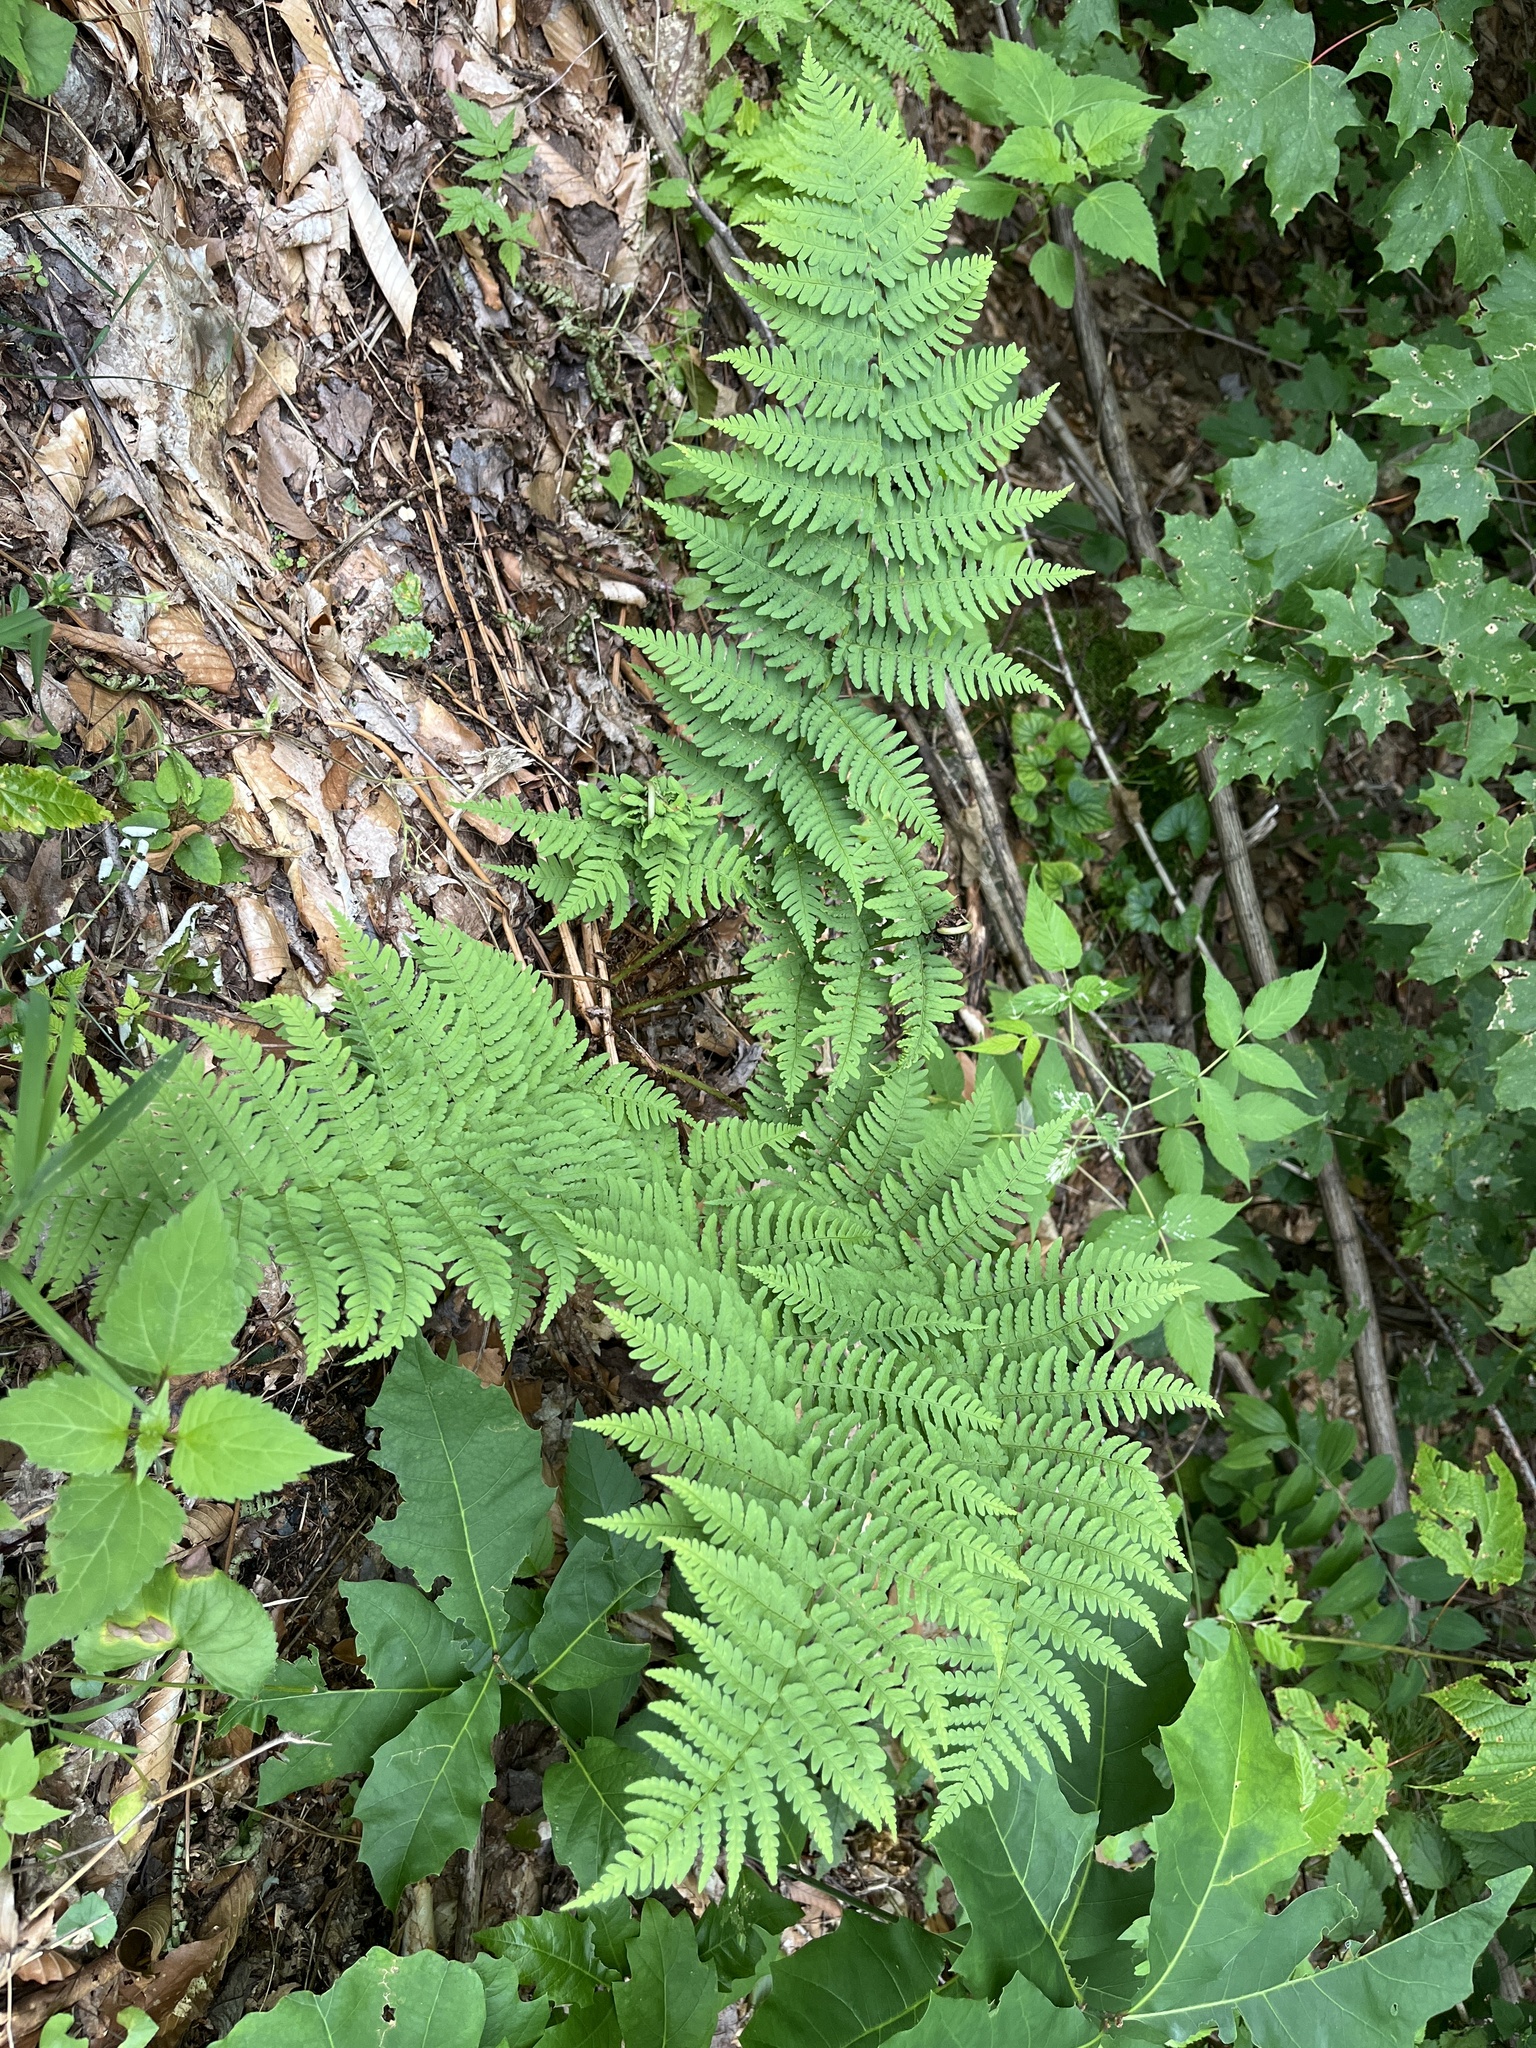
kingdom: Plantae
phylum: Tracheophyta
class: Polypodiopsida
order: Polypodiales
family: Dryopteridaceae
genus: Dryopteris
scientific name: Dryopteris marginalis
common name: Marginal wood fern
